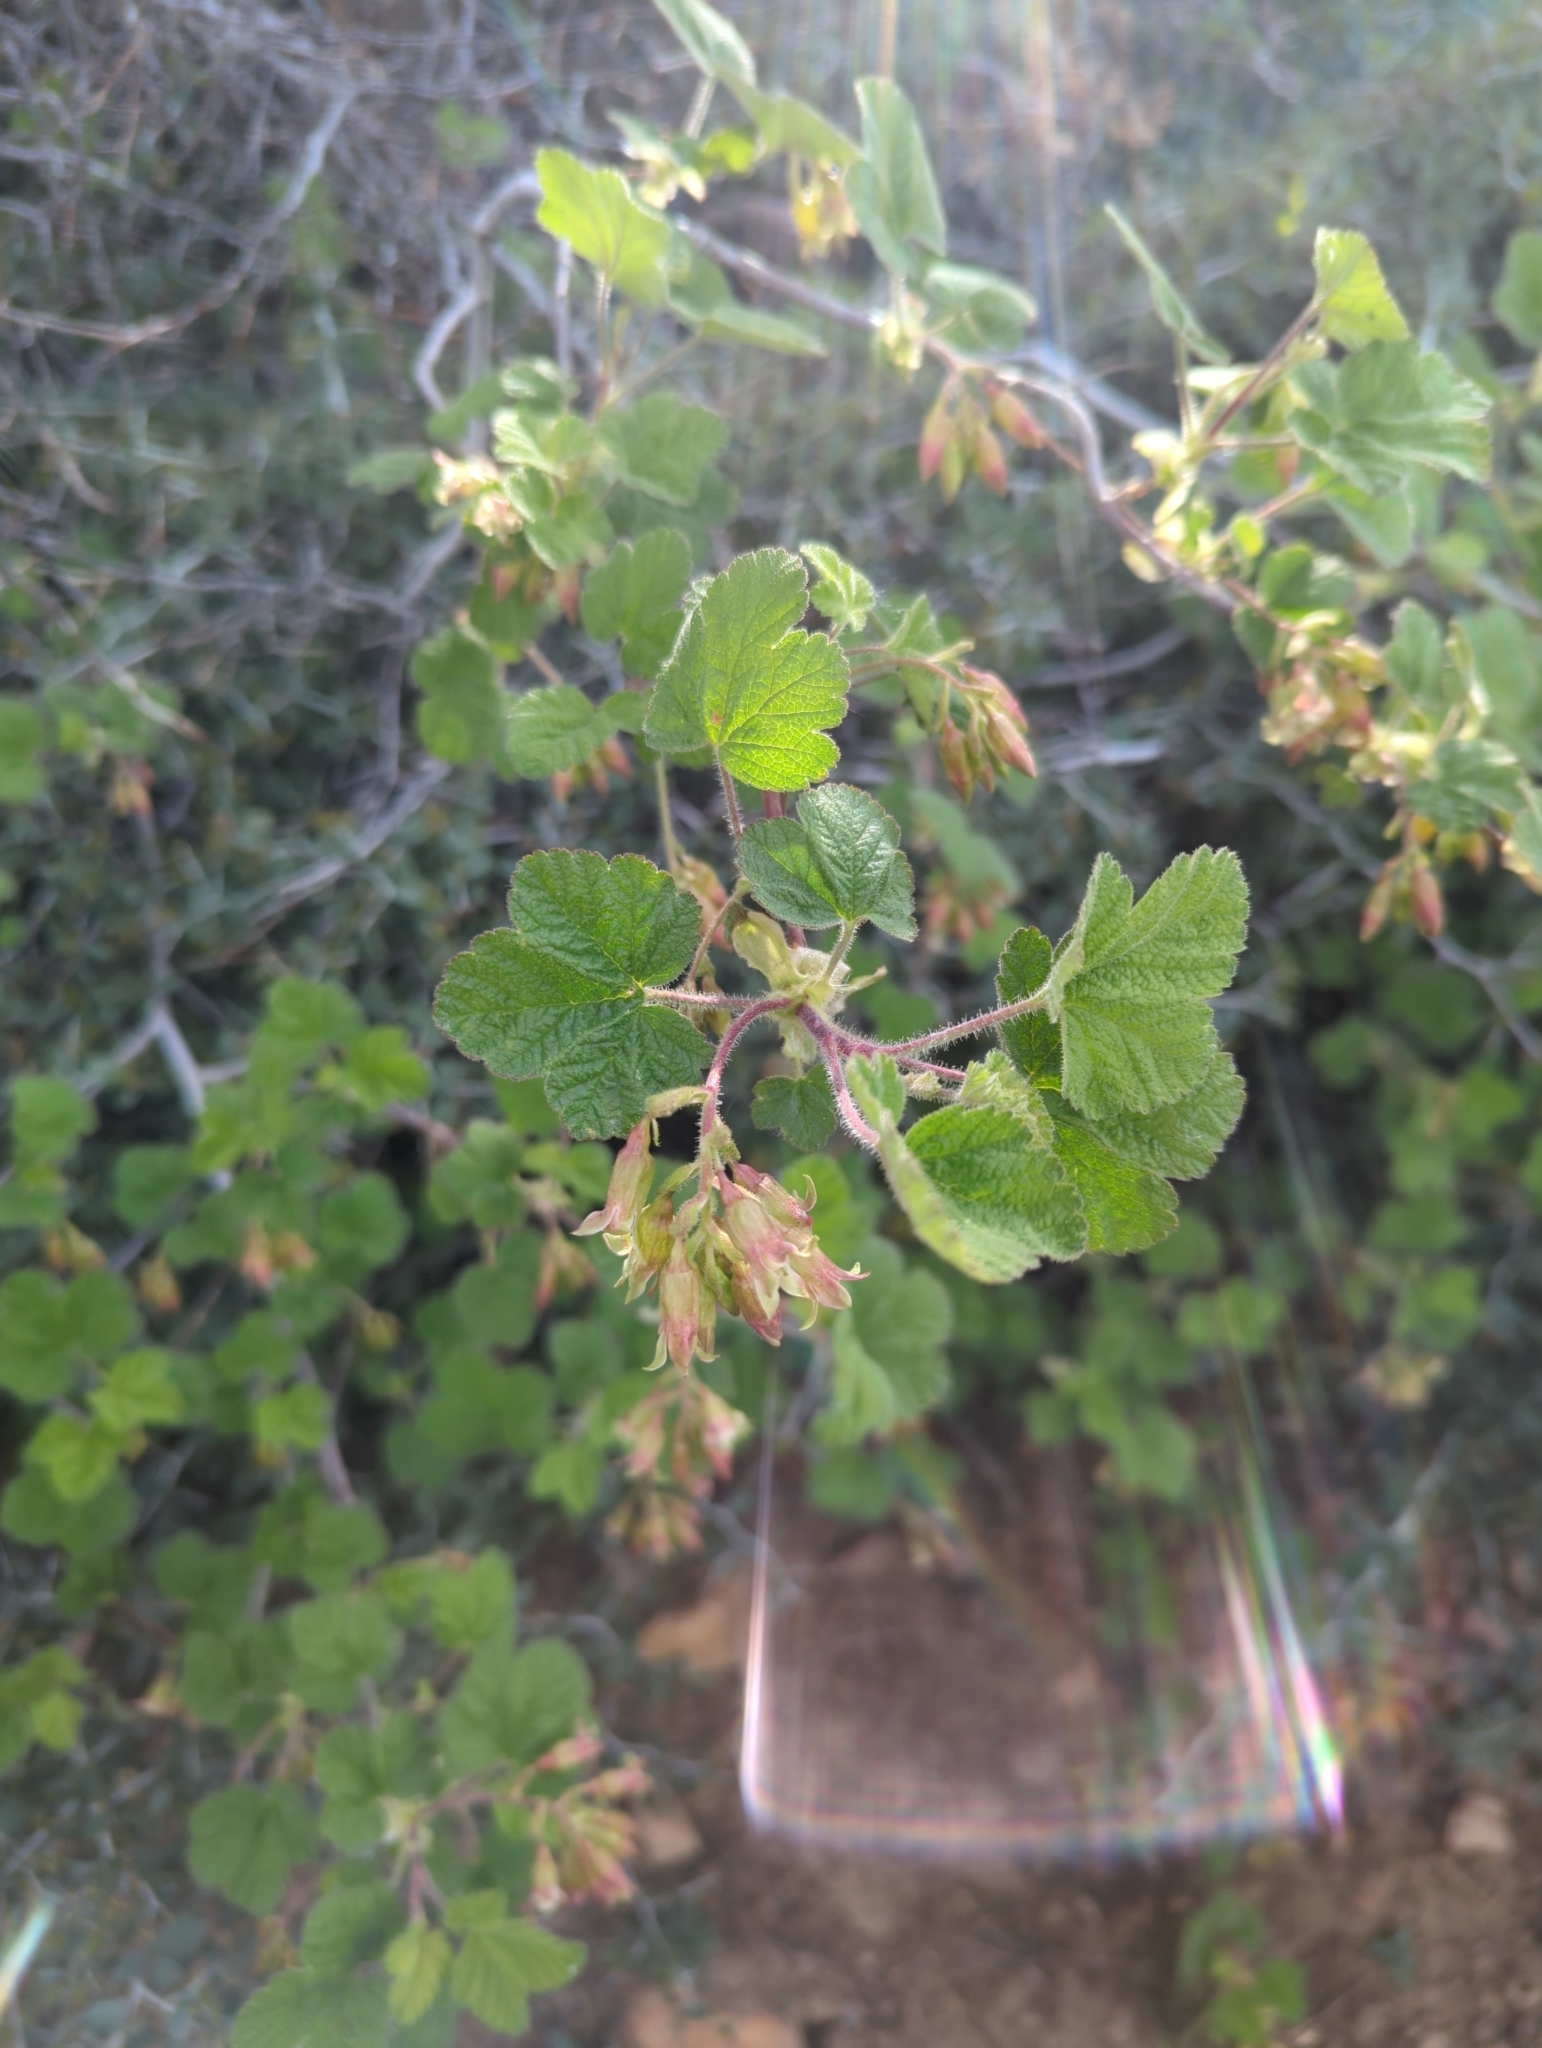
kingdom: Plantae
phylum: Tracheophyta
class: Magnoliopsida
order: Saxifragales
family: Grossulariaceae
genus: Ribes
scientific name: Ribes viscosissimum
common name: Sticky currant
